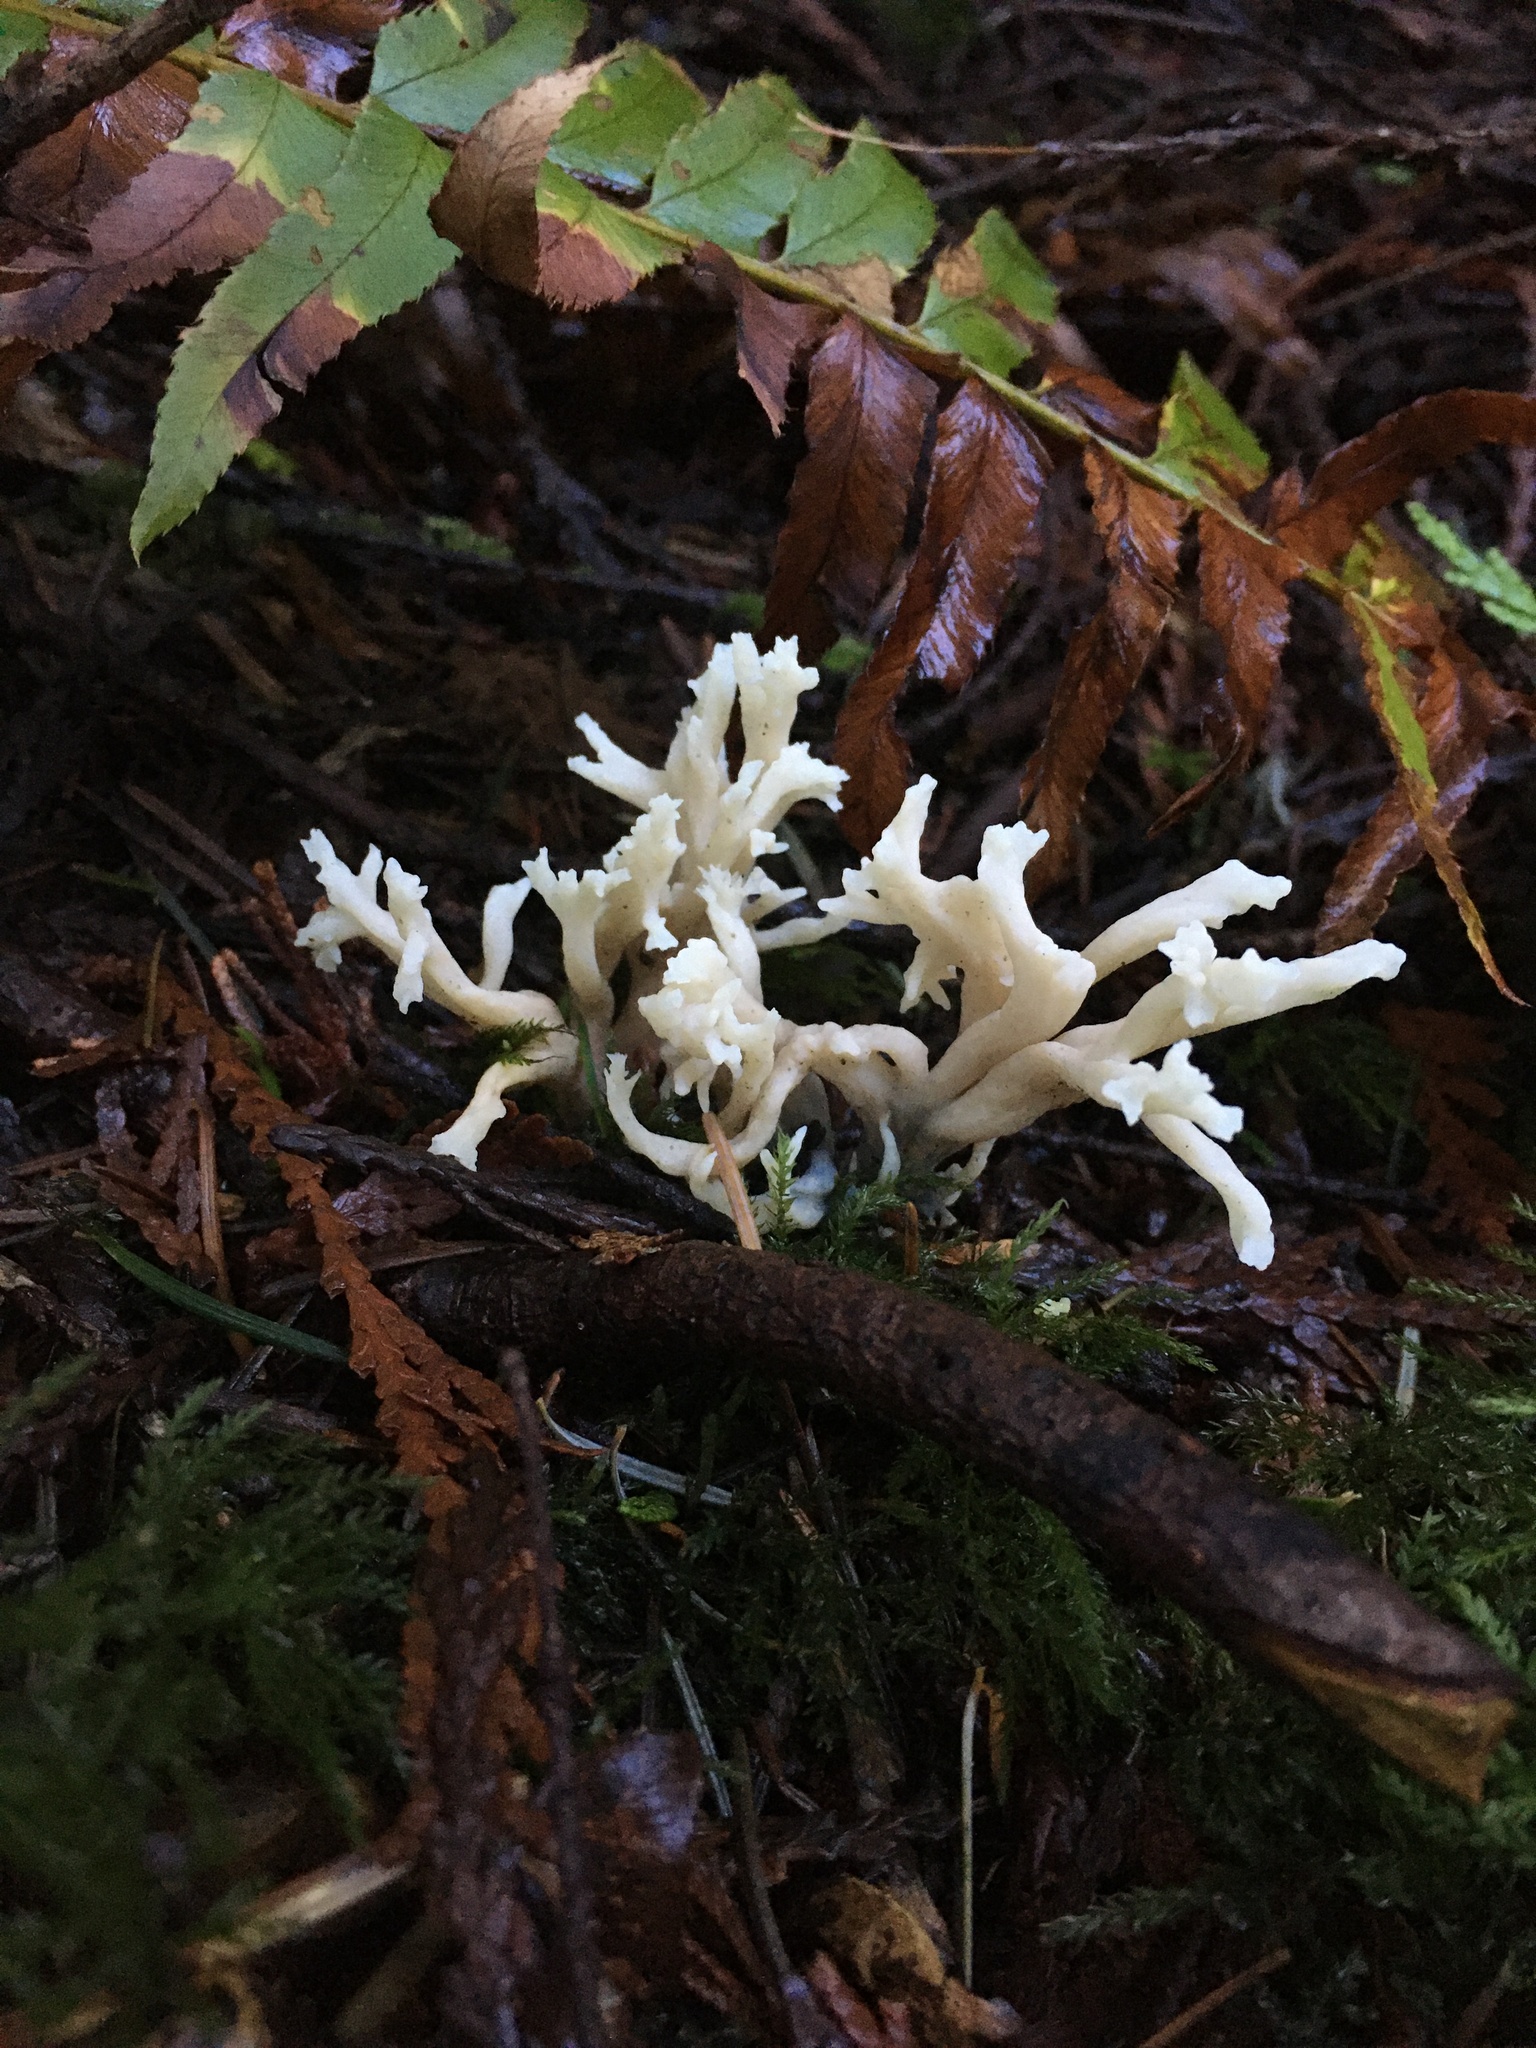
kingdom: Fungi
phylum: Basidiomycota
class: Agaricomycetes
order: Cantharellales
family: Hydnaceae
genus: Clavulina
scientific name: Clavulina rugosa
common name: Wrinkled club
